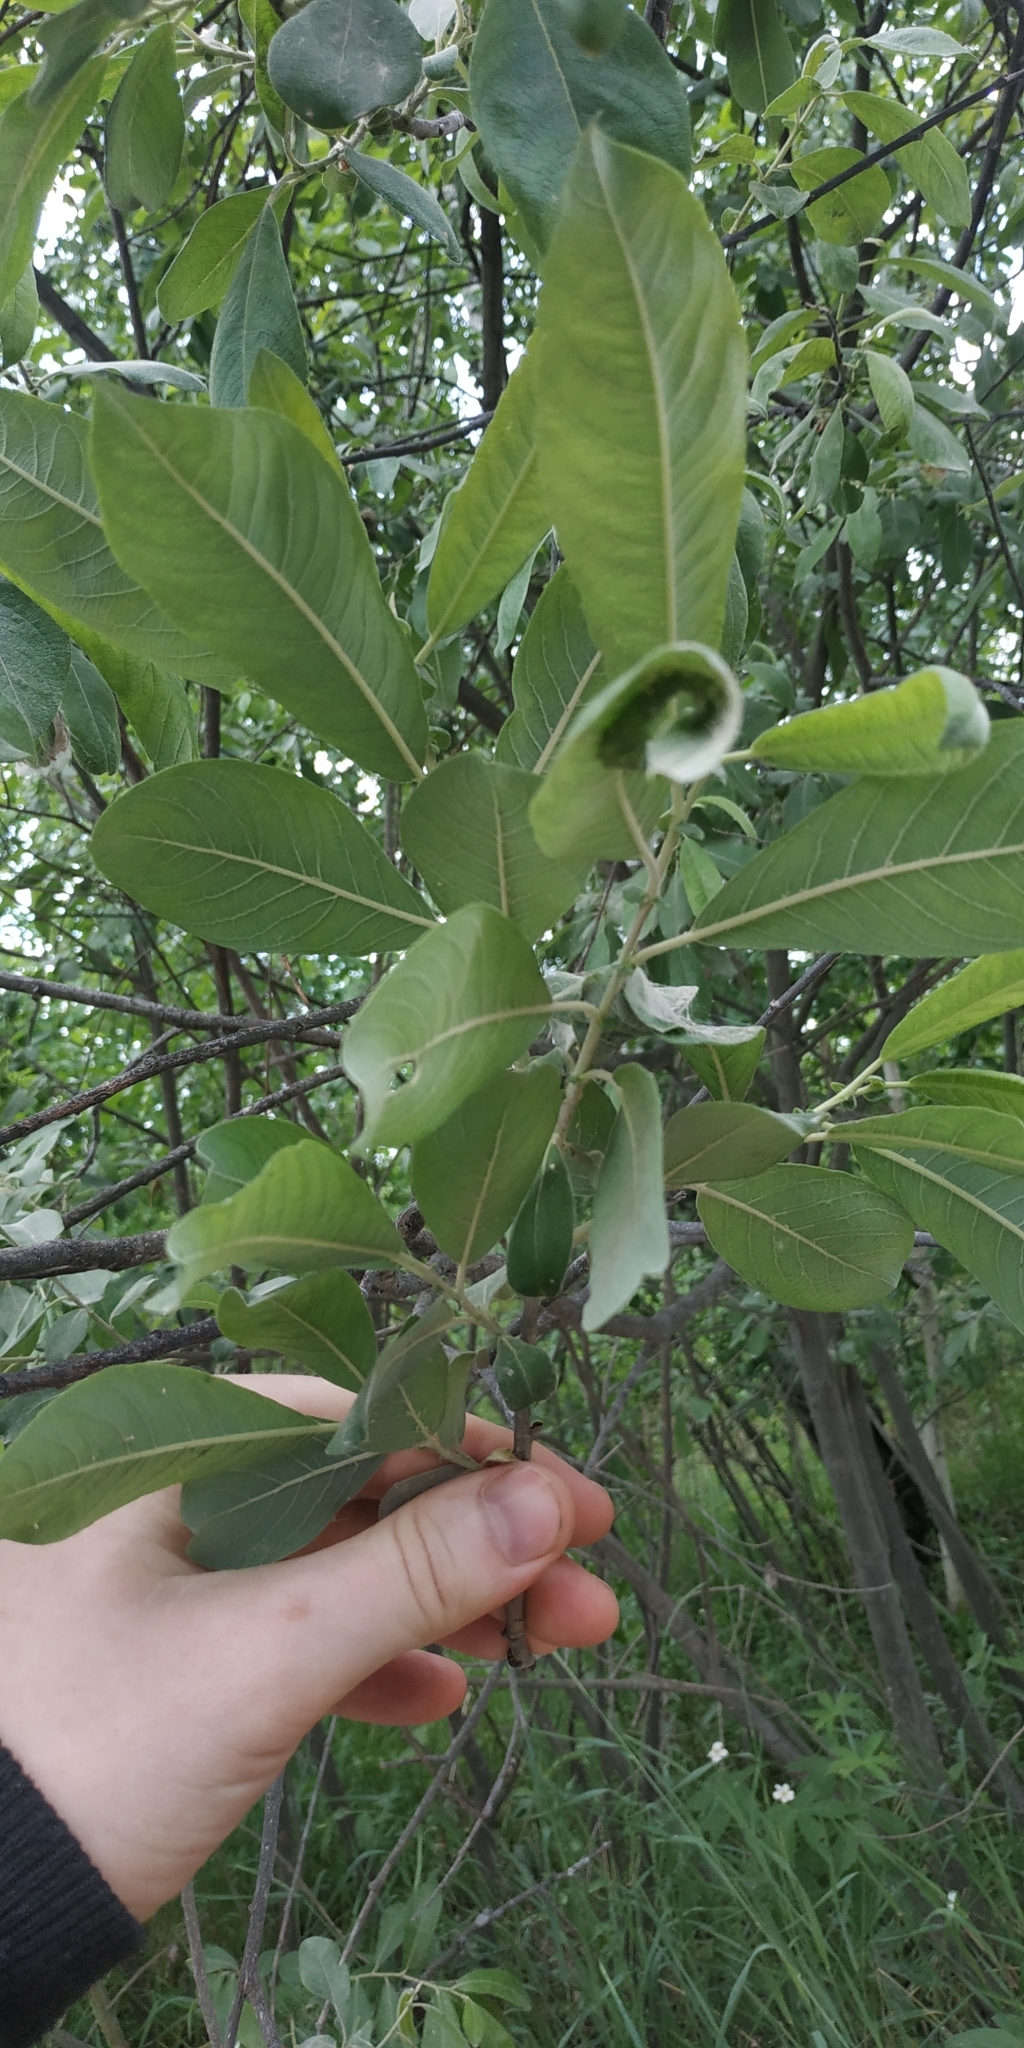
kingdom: Plantae
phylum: Tracheophyta
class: Magnoliopsida
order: Malpighiales
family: Salicaceae
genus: Salix
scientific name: Salix cinerea
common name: Common sallow
